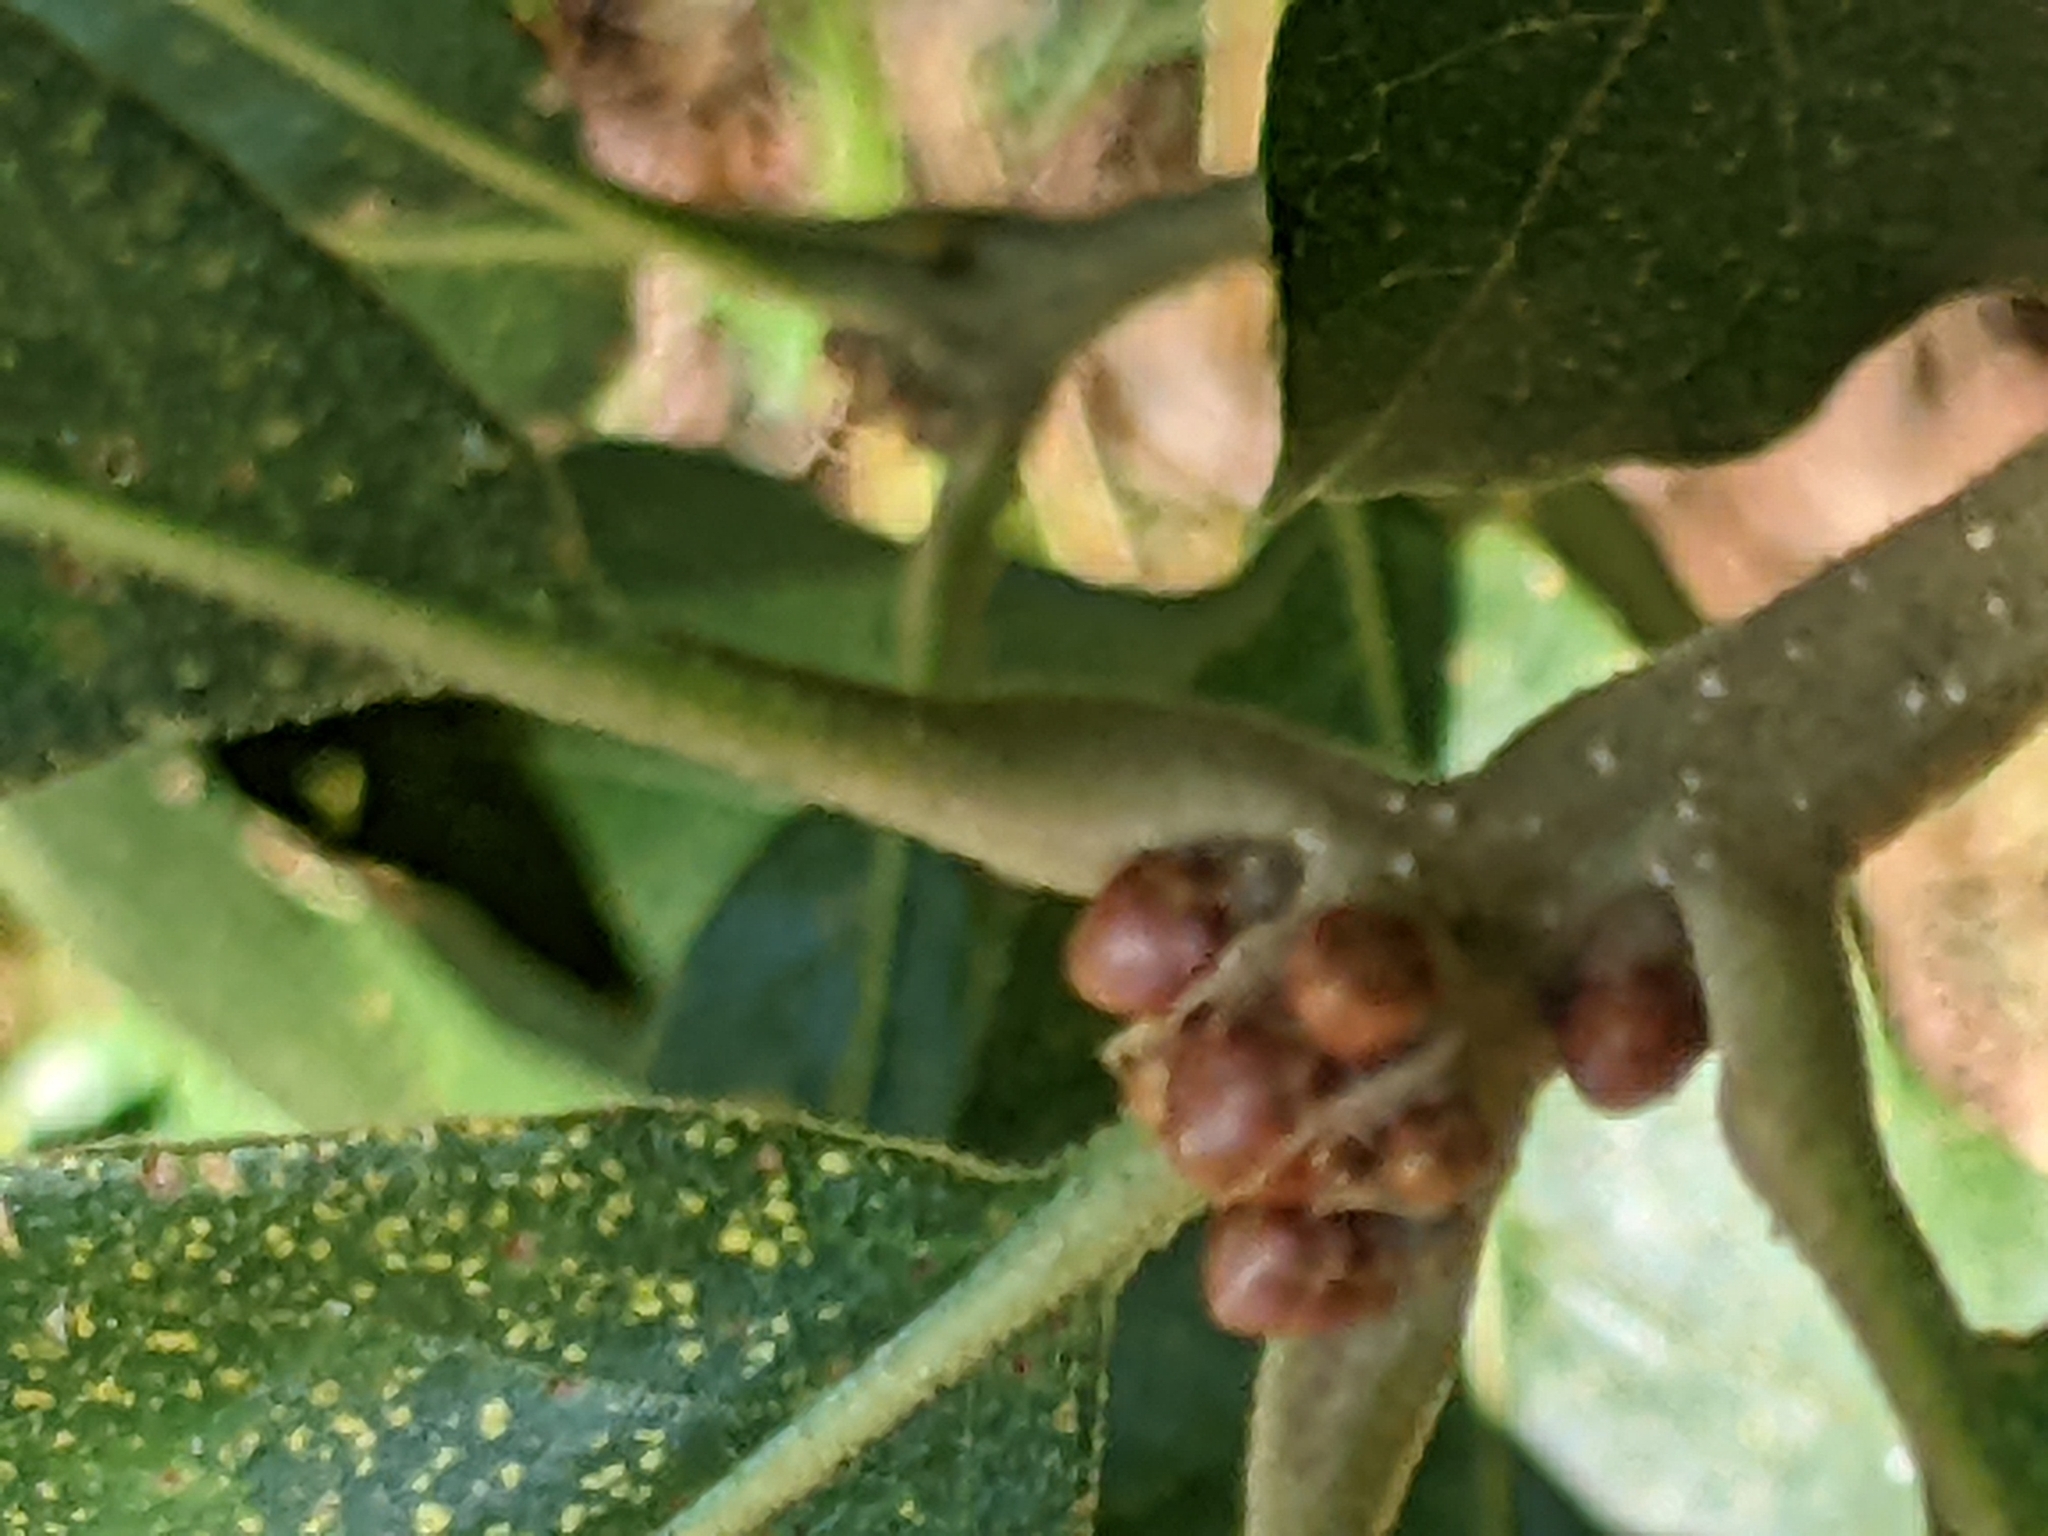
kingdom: Plantae
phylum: Tracheophyta
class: Magnoliopsida
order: Fagales
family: Fagaceae
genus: Quercus
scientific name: Quercus stellata
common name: Post oak
